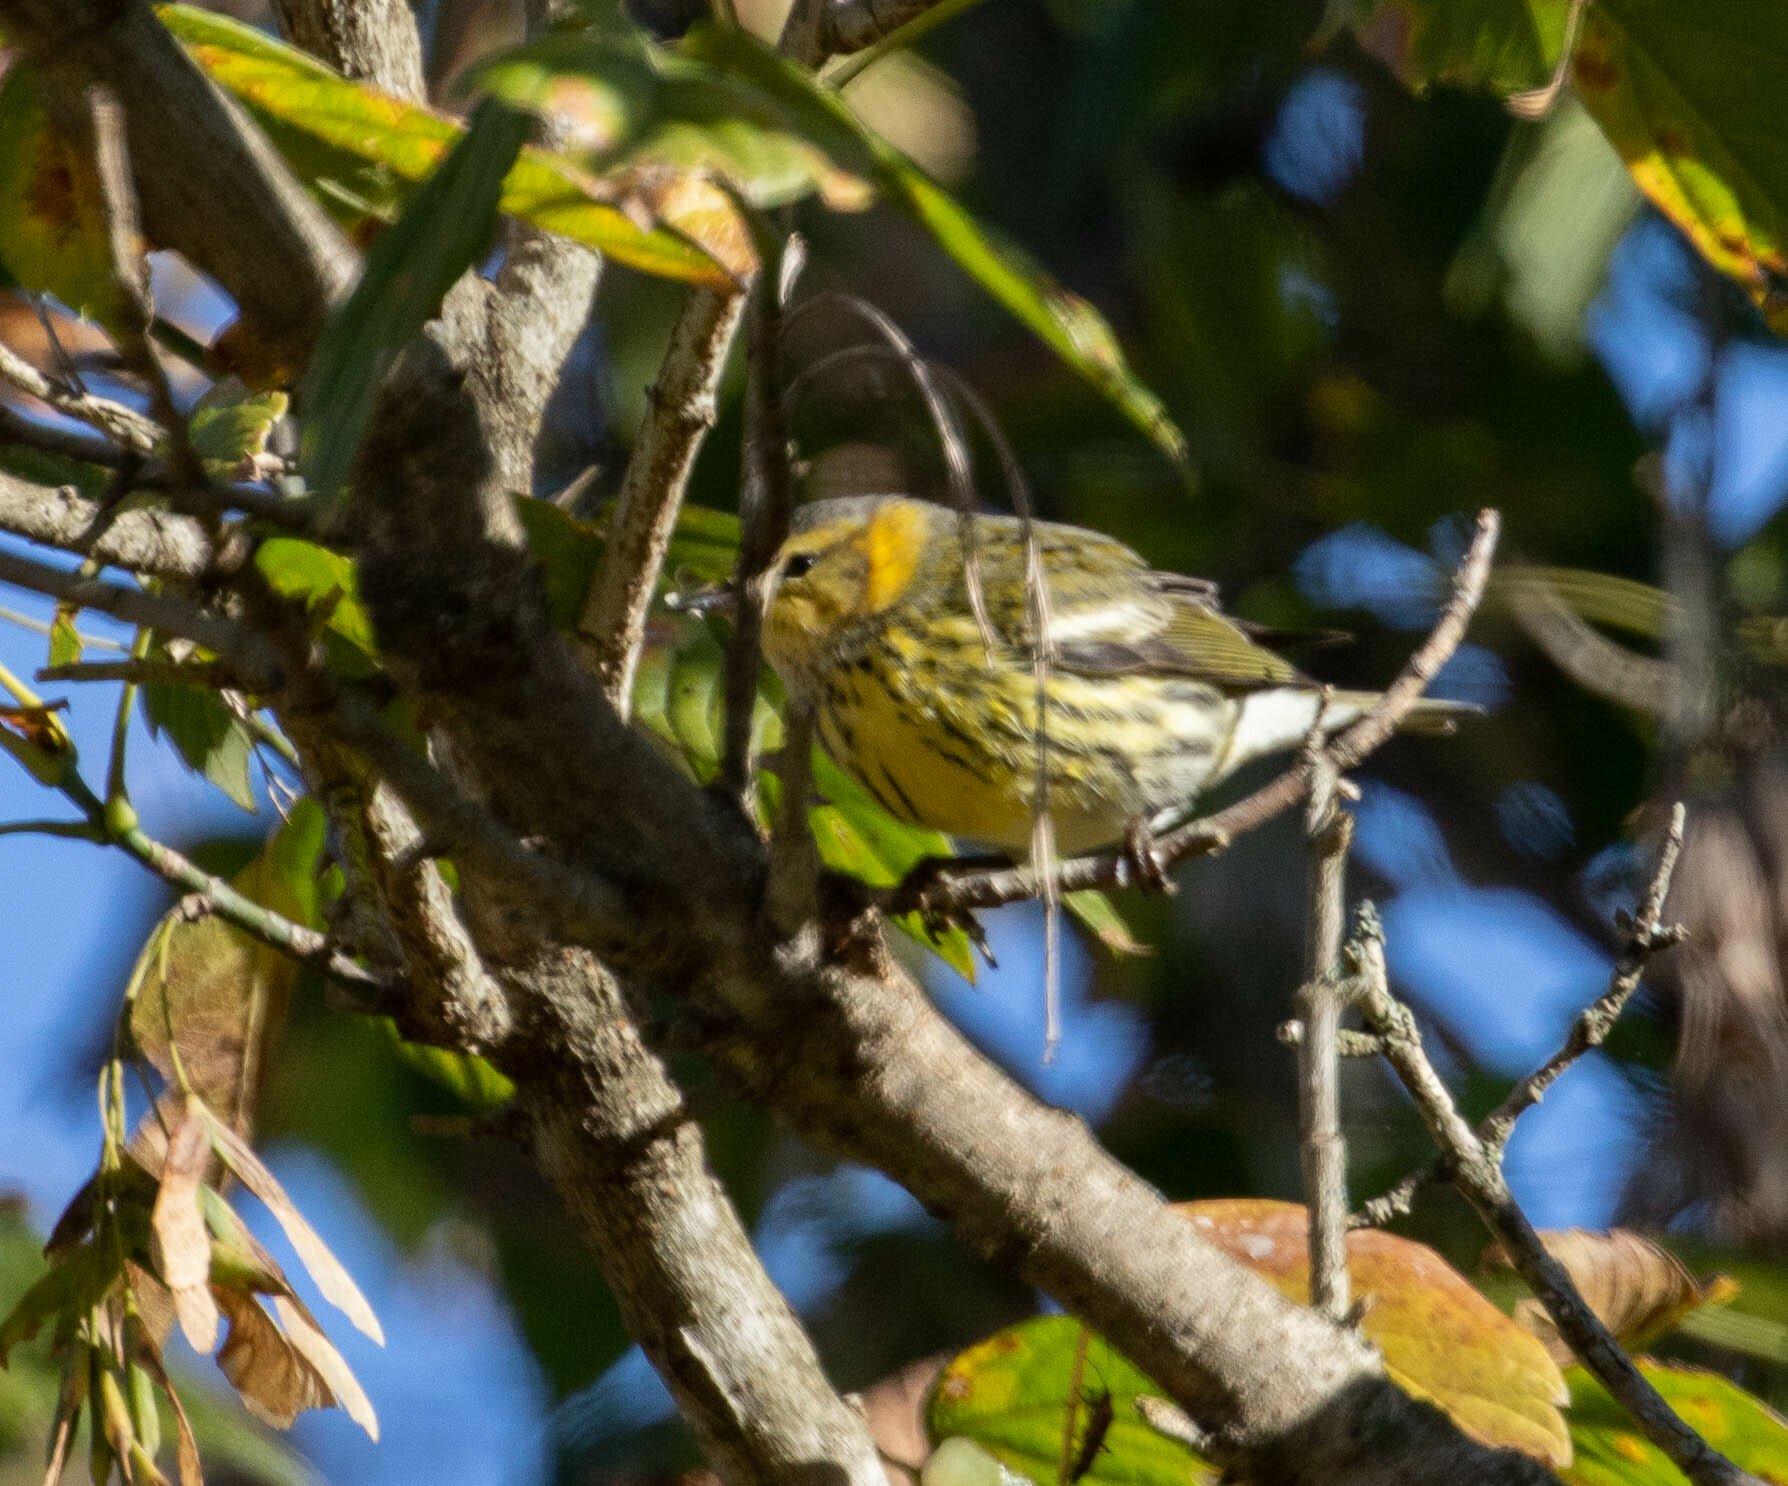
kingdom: Animalia
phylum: Chordata
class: Aves
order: Passeriformes
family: Parulidae
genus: Setophaga
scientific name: Setophaga tigrina
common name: Cape may warbler
